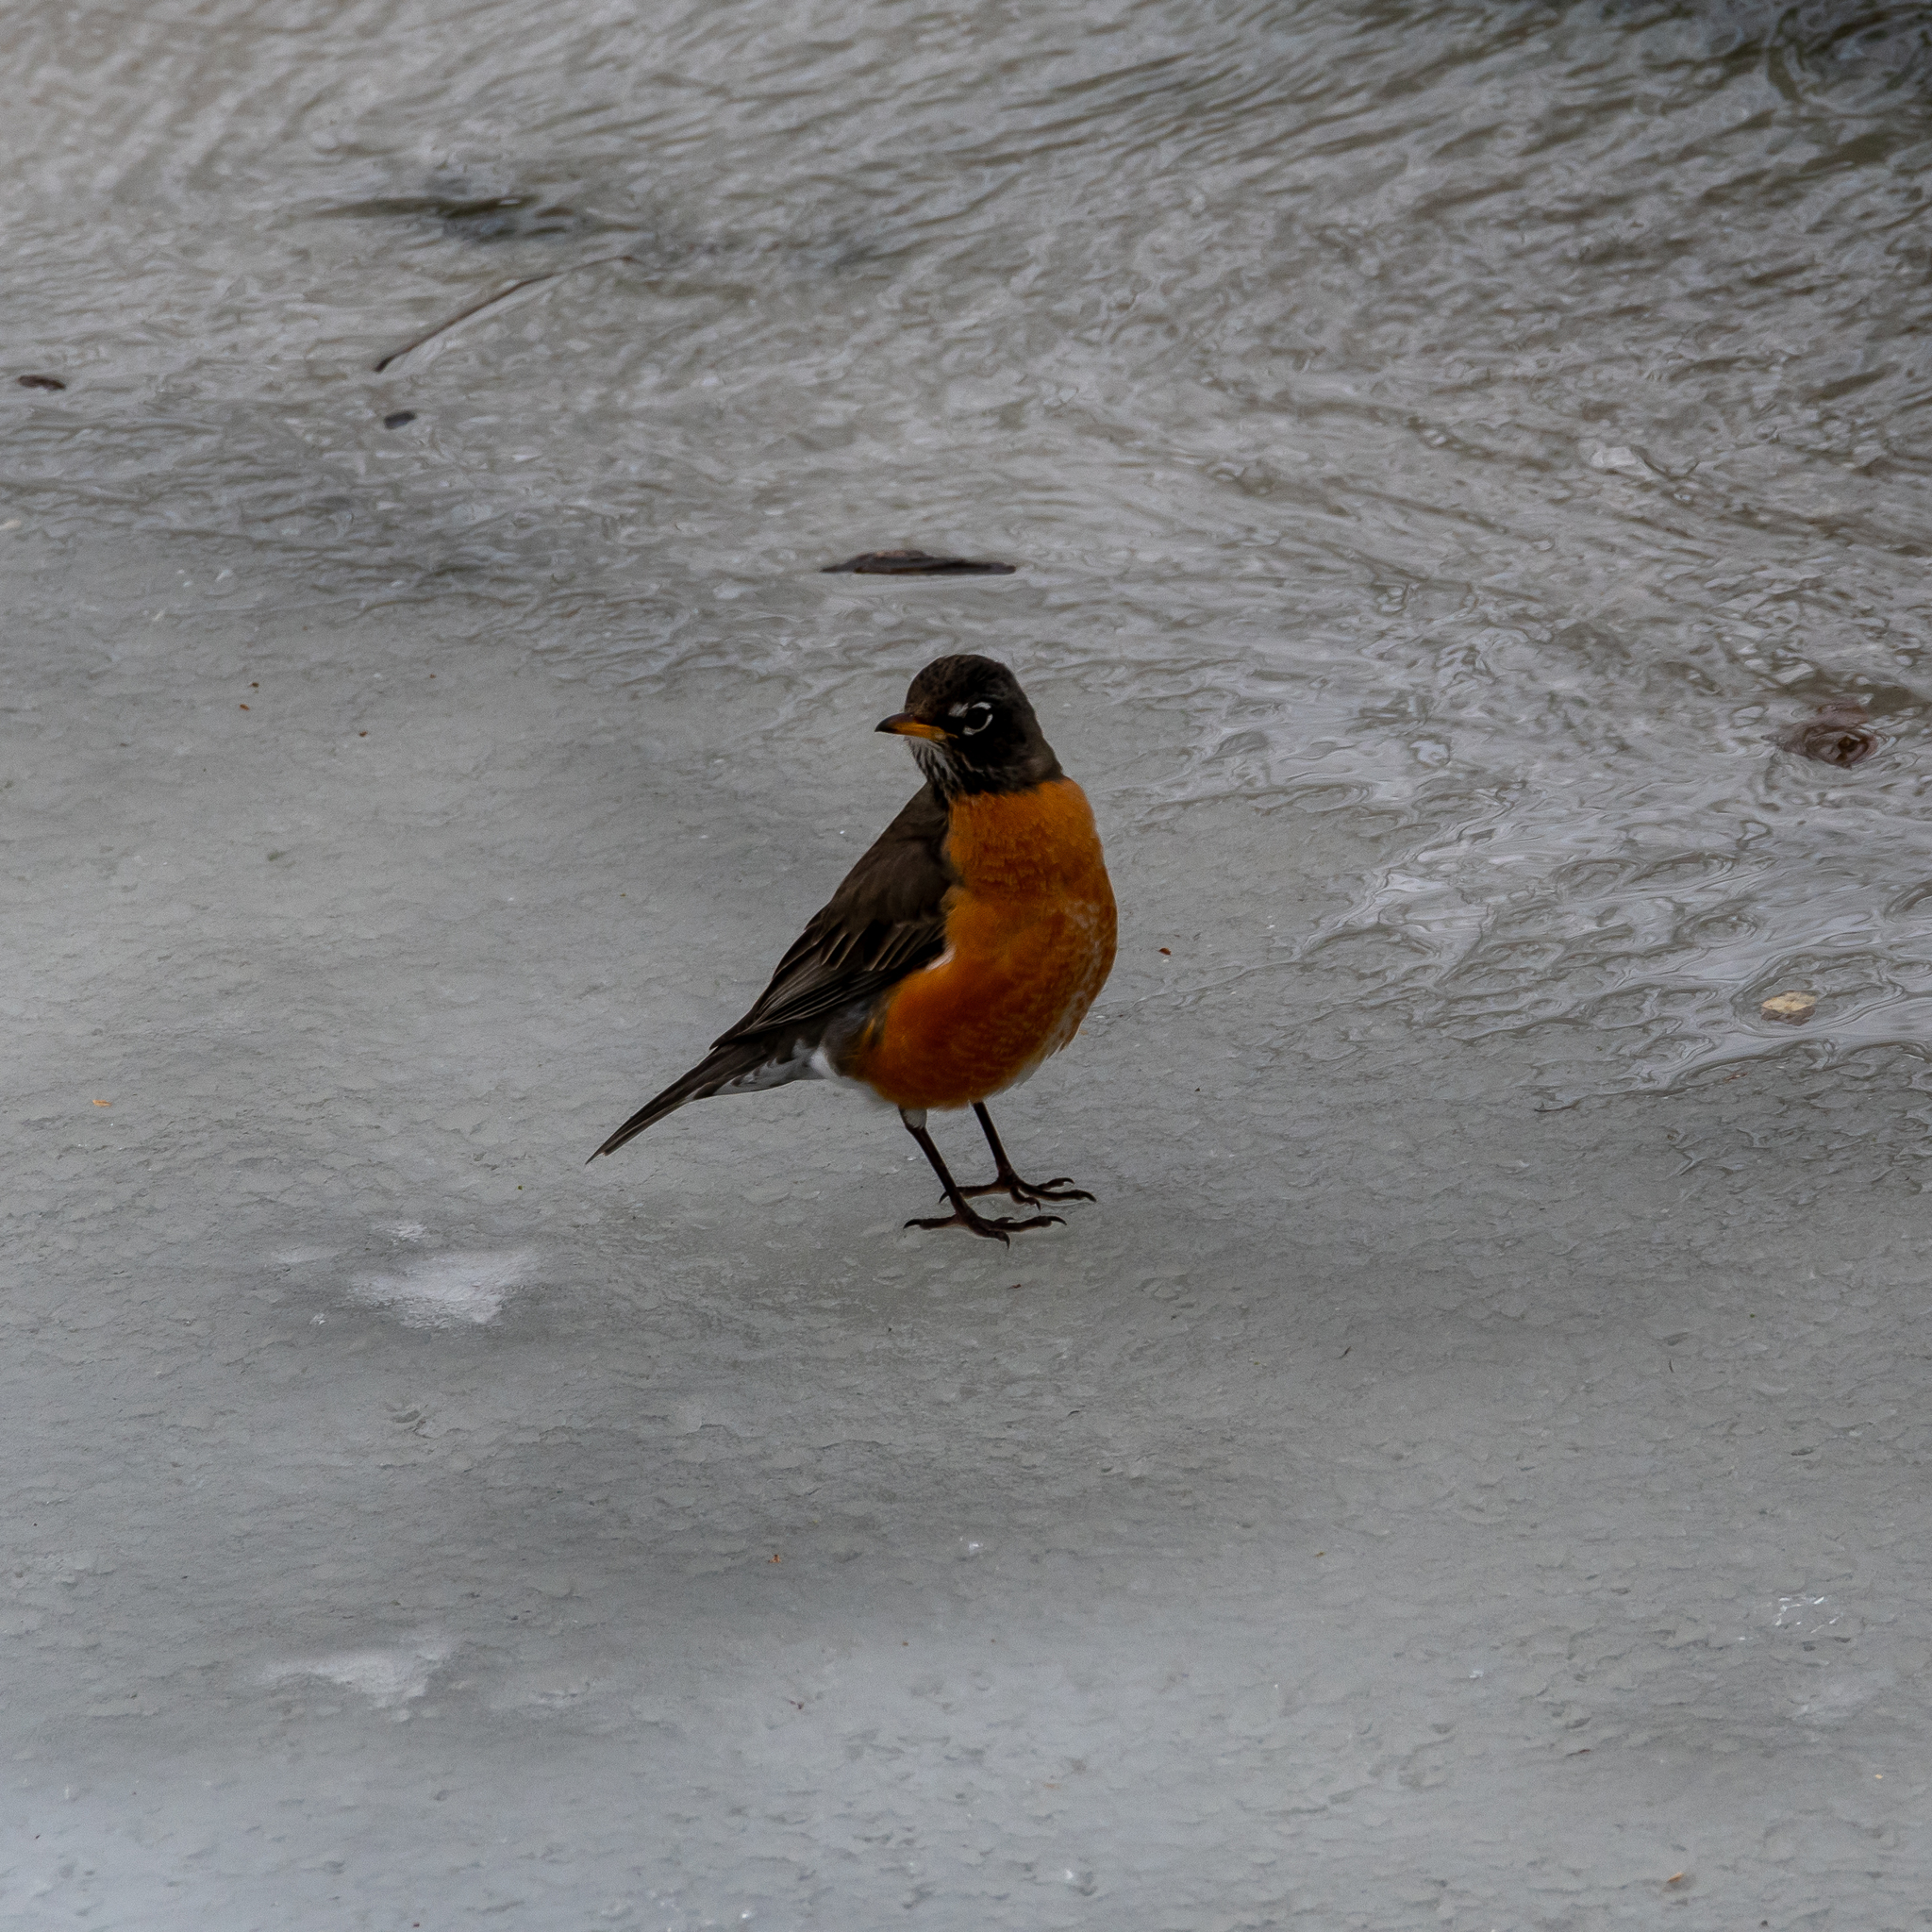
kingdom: Animalia
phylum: Chordata
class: Aves
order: Passeriformes
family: Turdidae
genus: Turdus
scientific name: Turdus migratorius
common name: American robin
